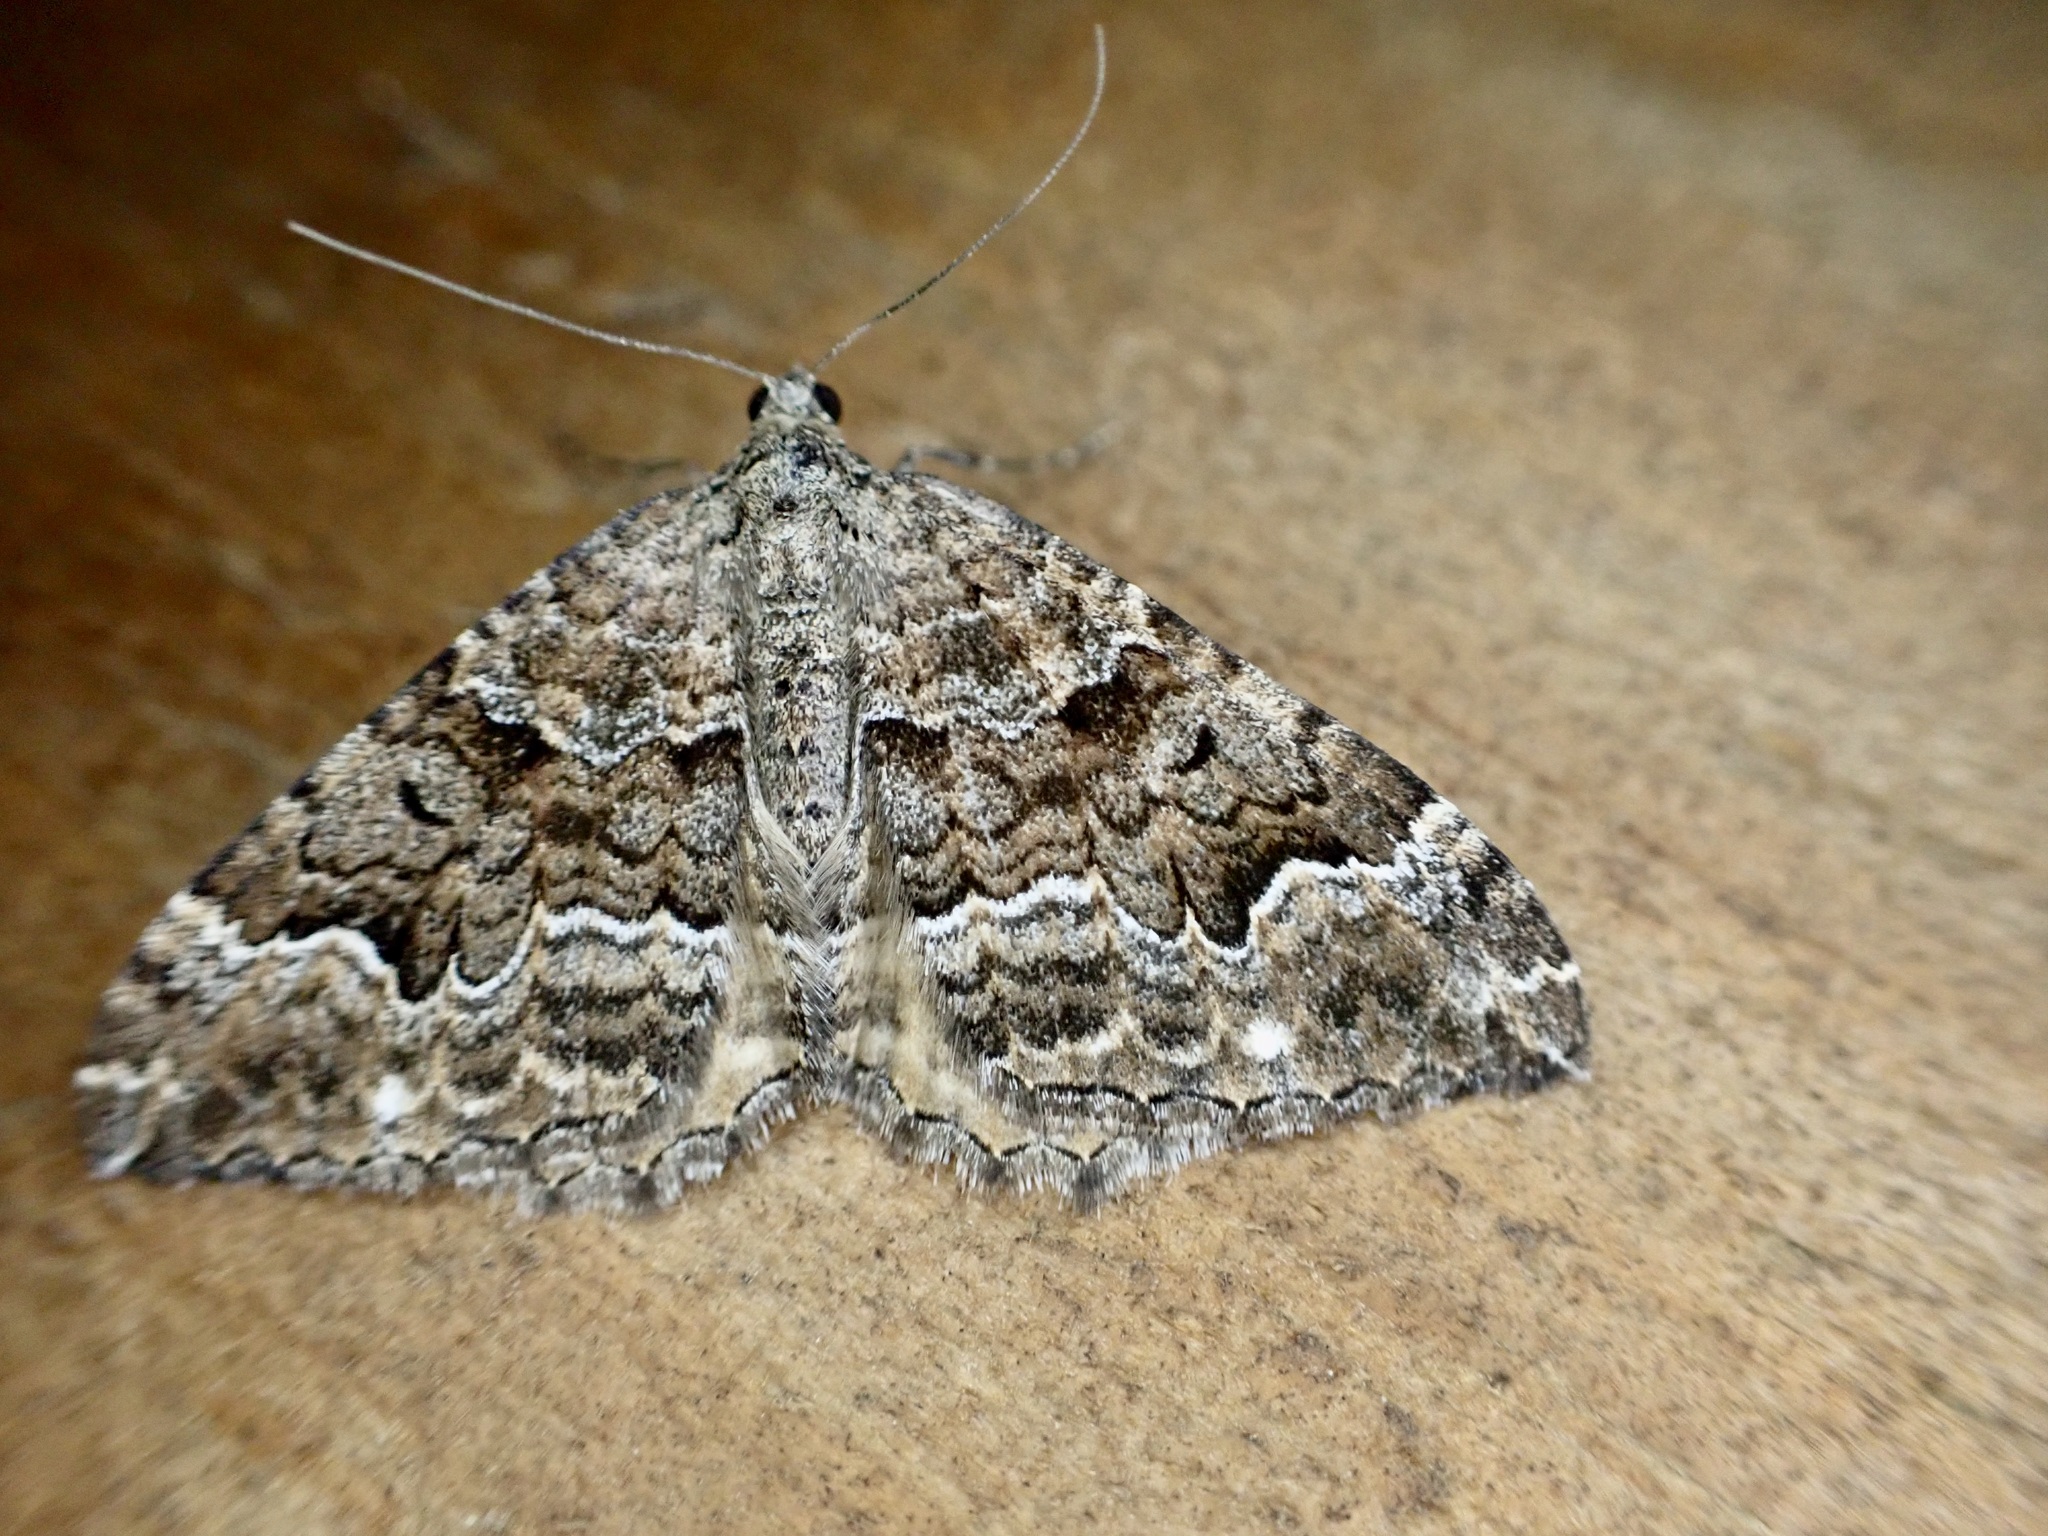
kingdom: Animalia
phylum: Arthropoda
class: Insecta
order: Lepidoptera
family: Geometridae
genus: Hydriomena
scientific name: Hydriomena deltoidata
